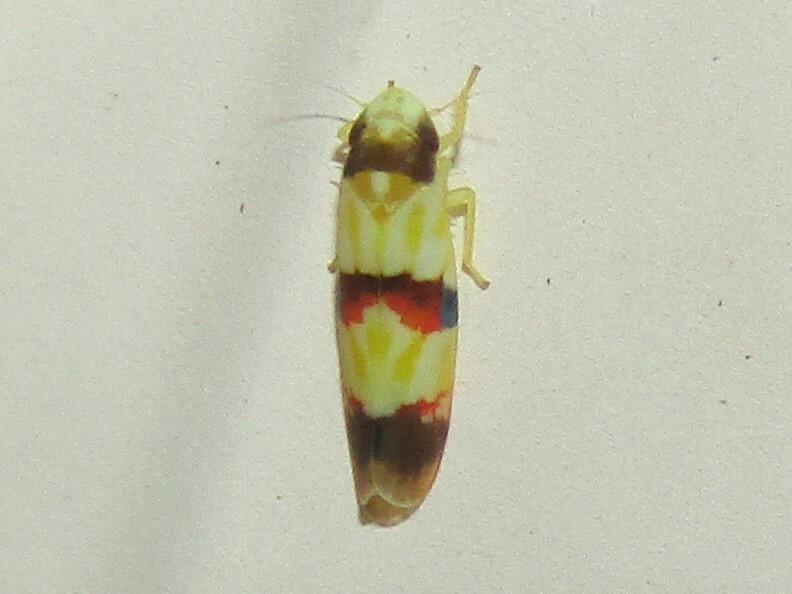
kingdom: Animalia
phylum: Arthropoda
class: Insecta
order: Hemiptera
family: Cicadellidae
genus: Erythroneura
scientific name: Erythroneura integra
